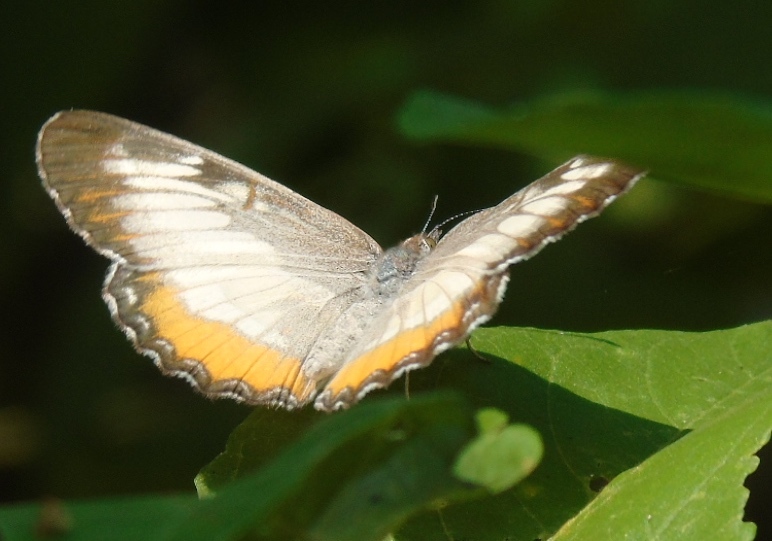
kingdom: Animalia
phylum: Arthropoda
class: Insecta
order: Lepidoptera
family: Nymphalidae
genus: Mestra
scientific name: Mestra amymone
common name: Common mestra
